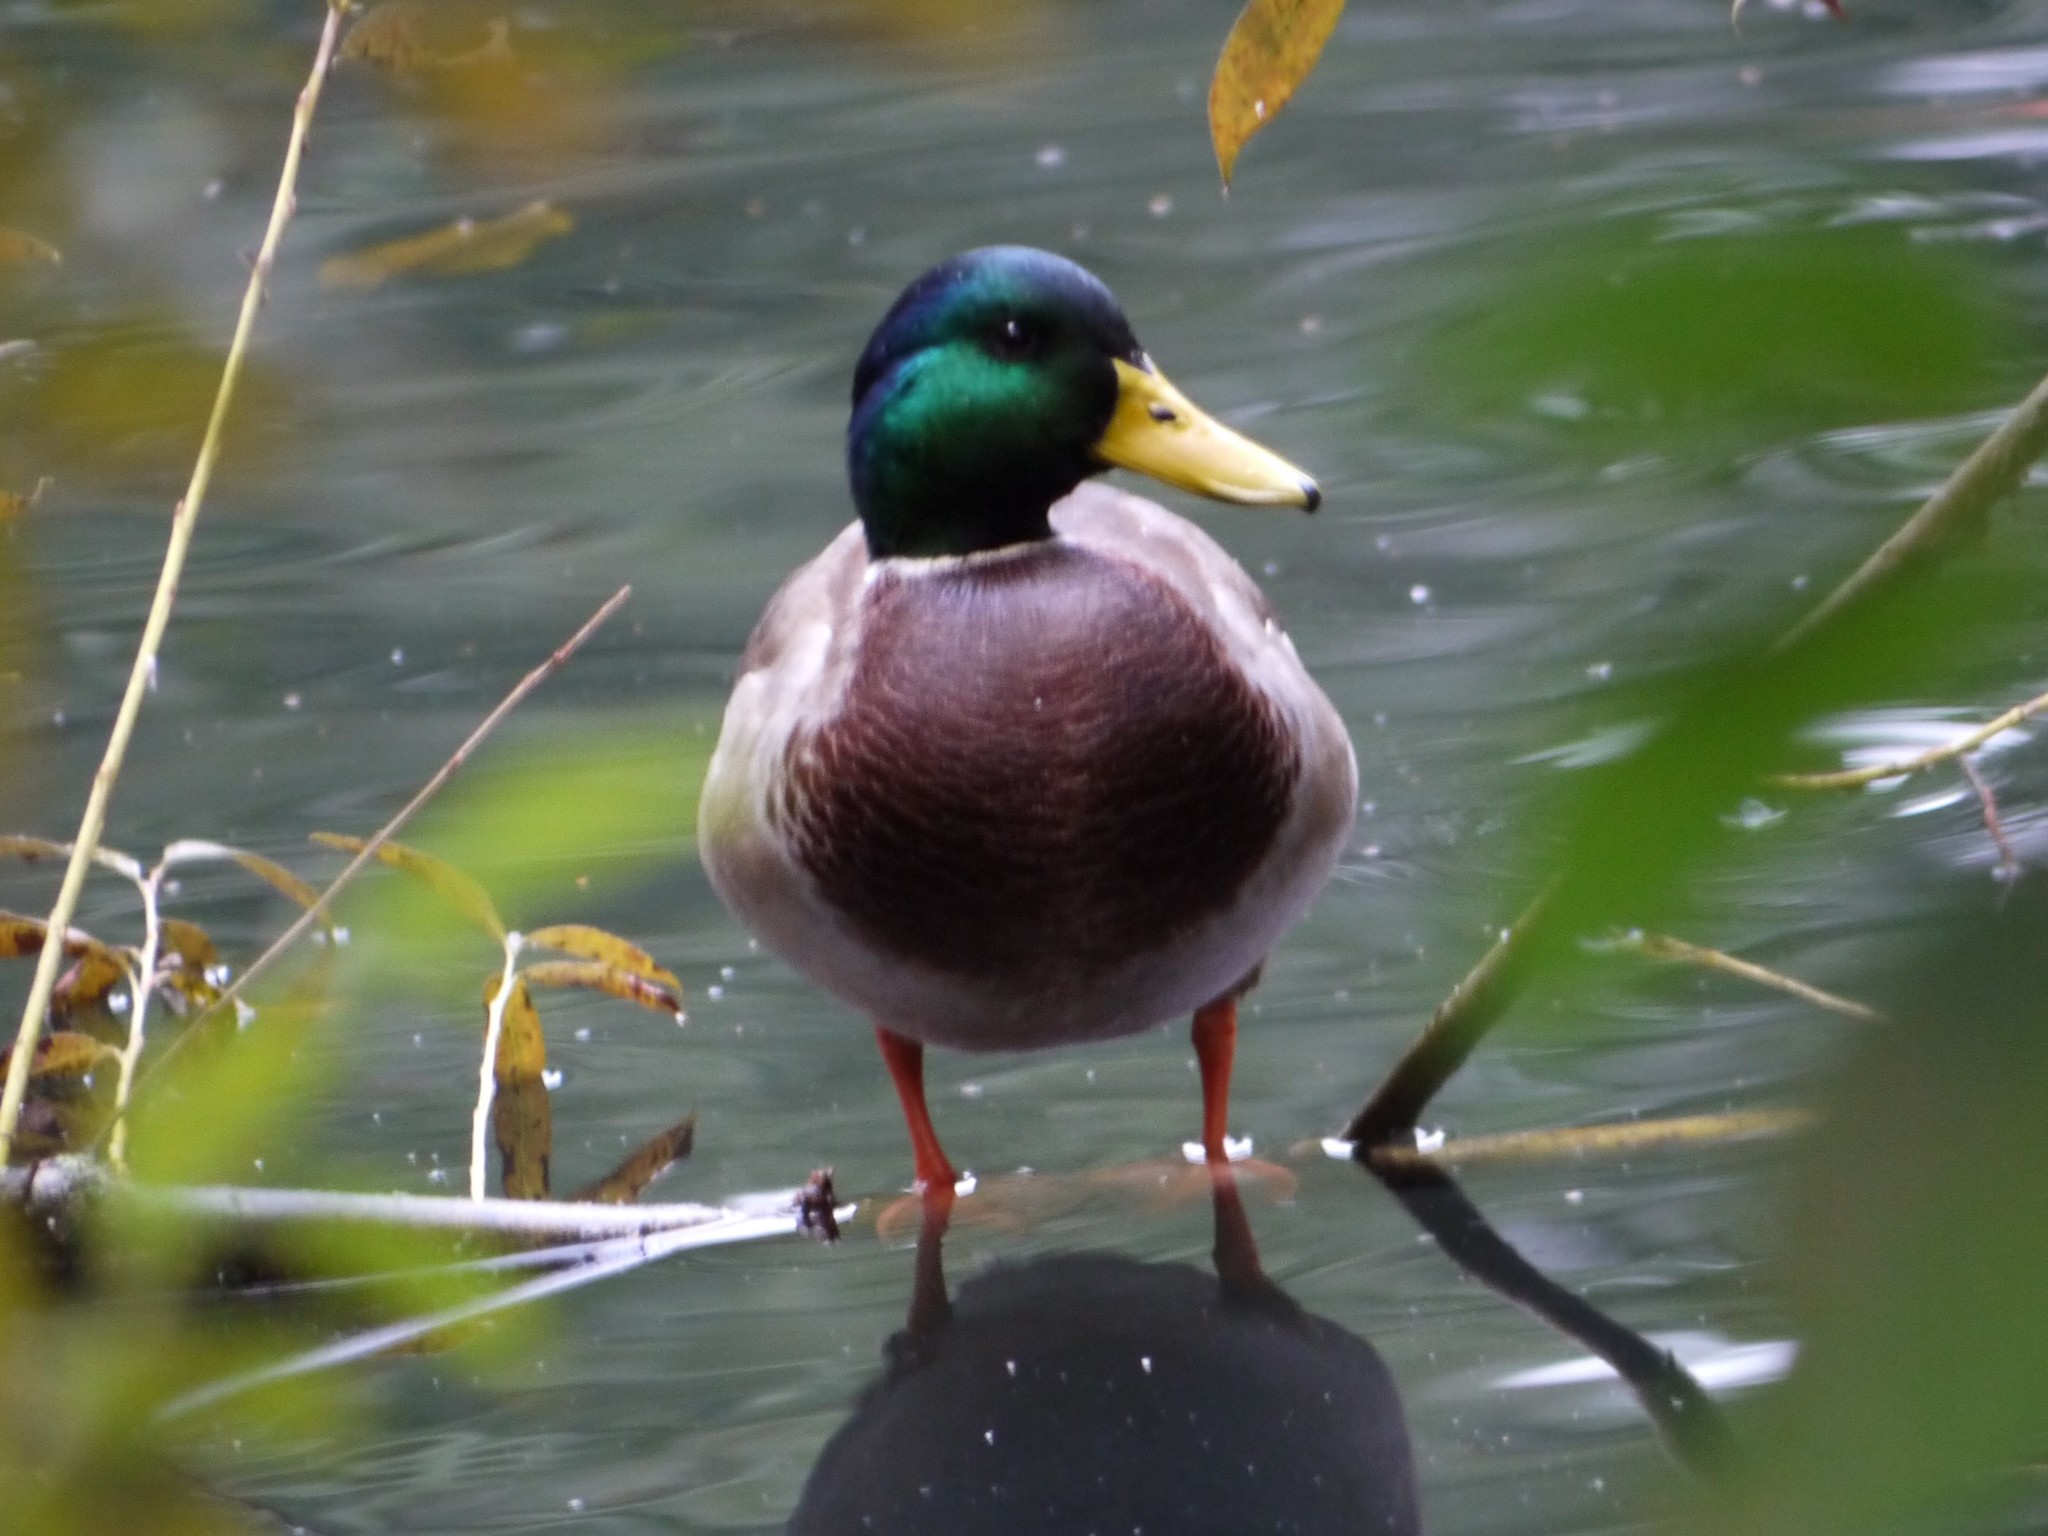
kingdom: Animalia
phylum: Chordata
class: Aves
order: Anseriformes
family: Anatidae
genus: Anas
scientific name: Anas platyrhynchos
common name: Mallard
